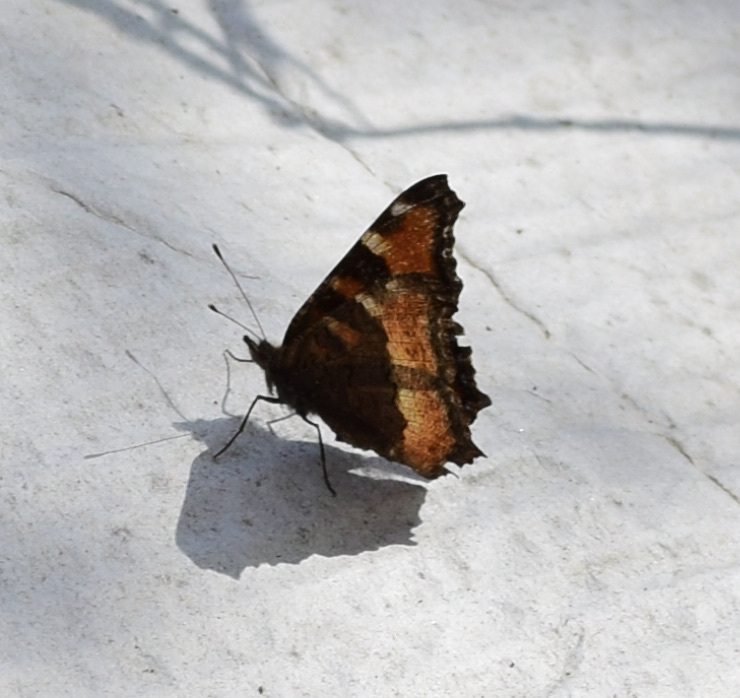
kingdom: Animalia
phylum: Arthropoda
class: Insecta
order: Lepidoptera
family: Nymphalidae
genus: Aglais
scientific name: Aglais milberti
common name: Milbert's tortoiseshell
